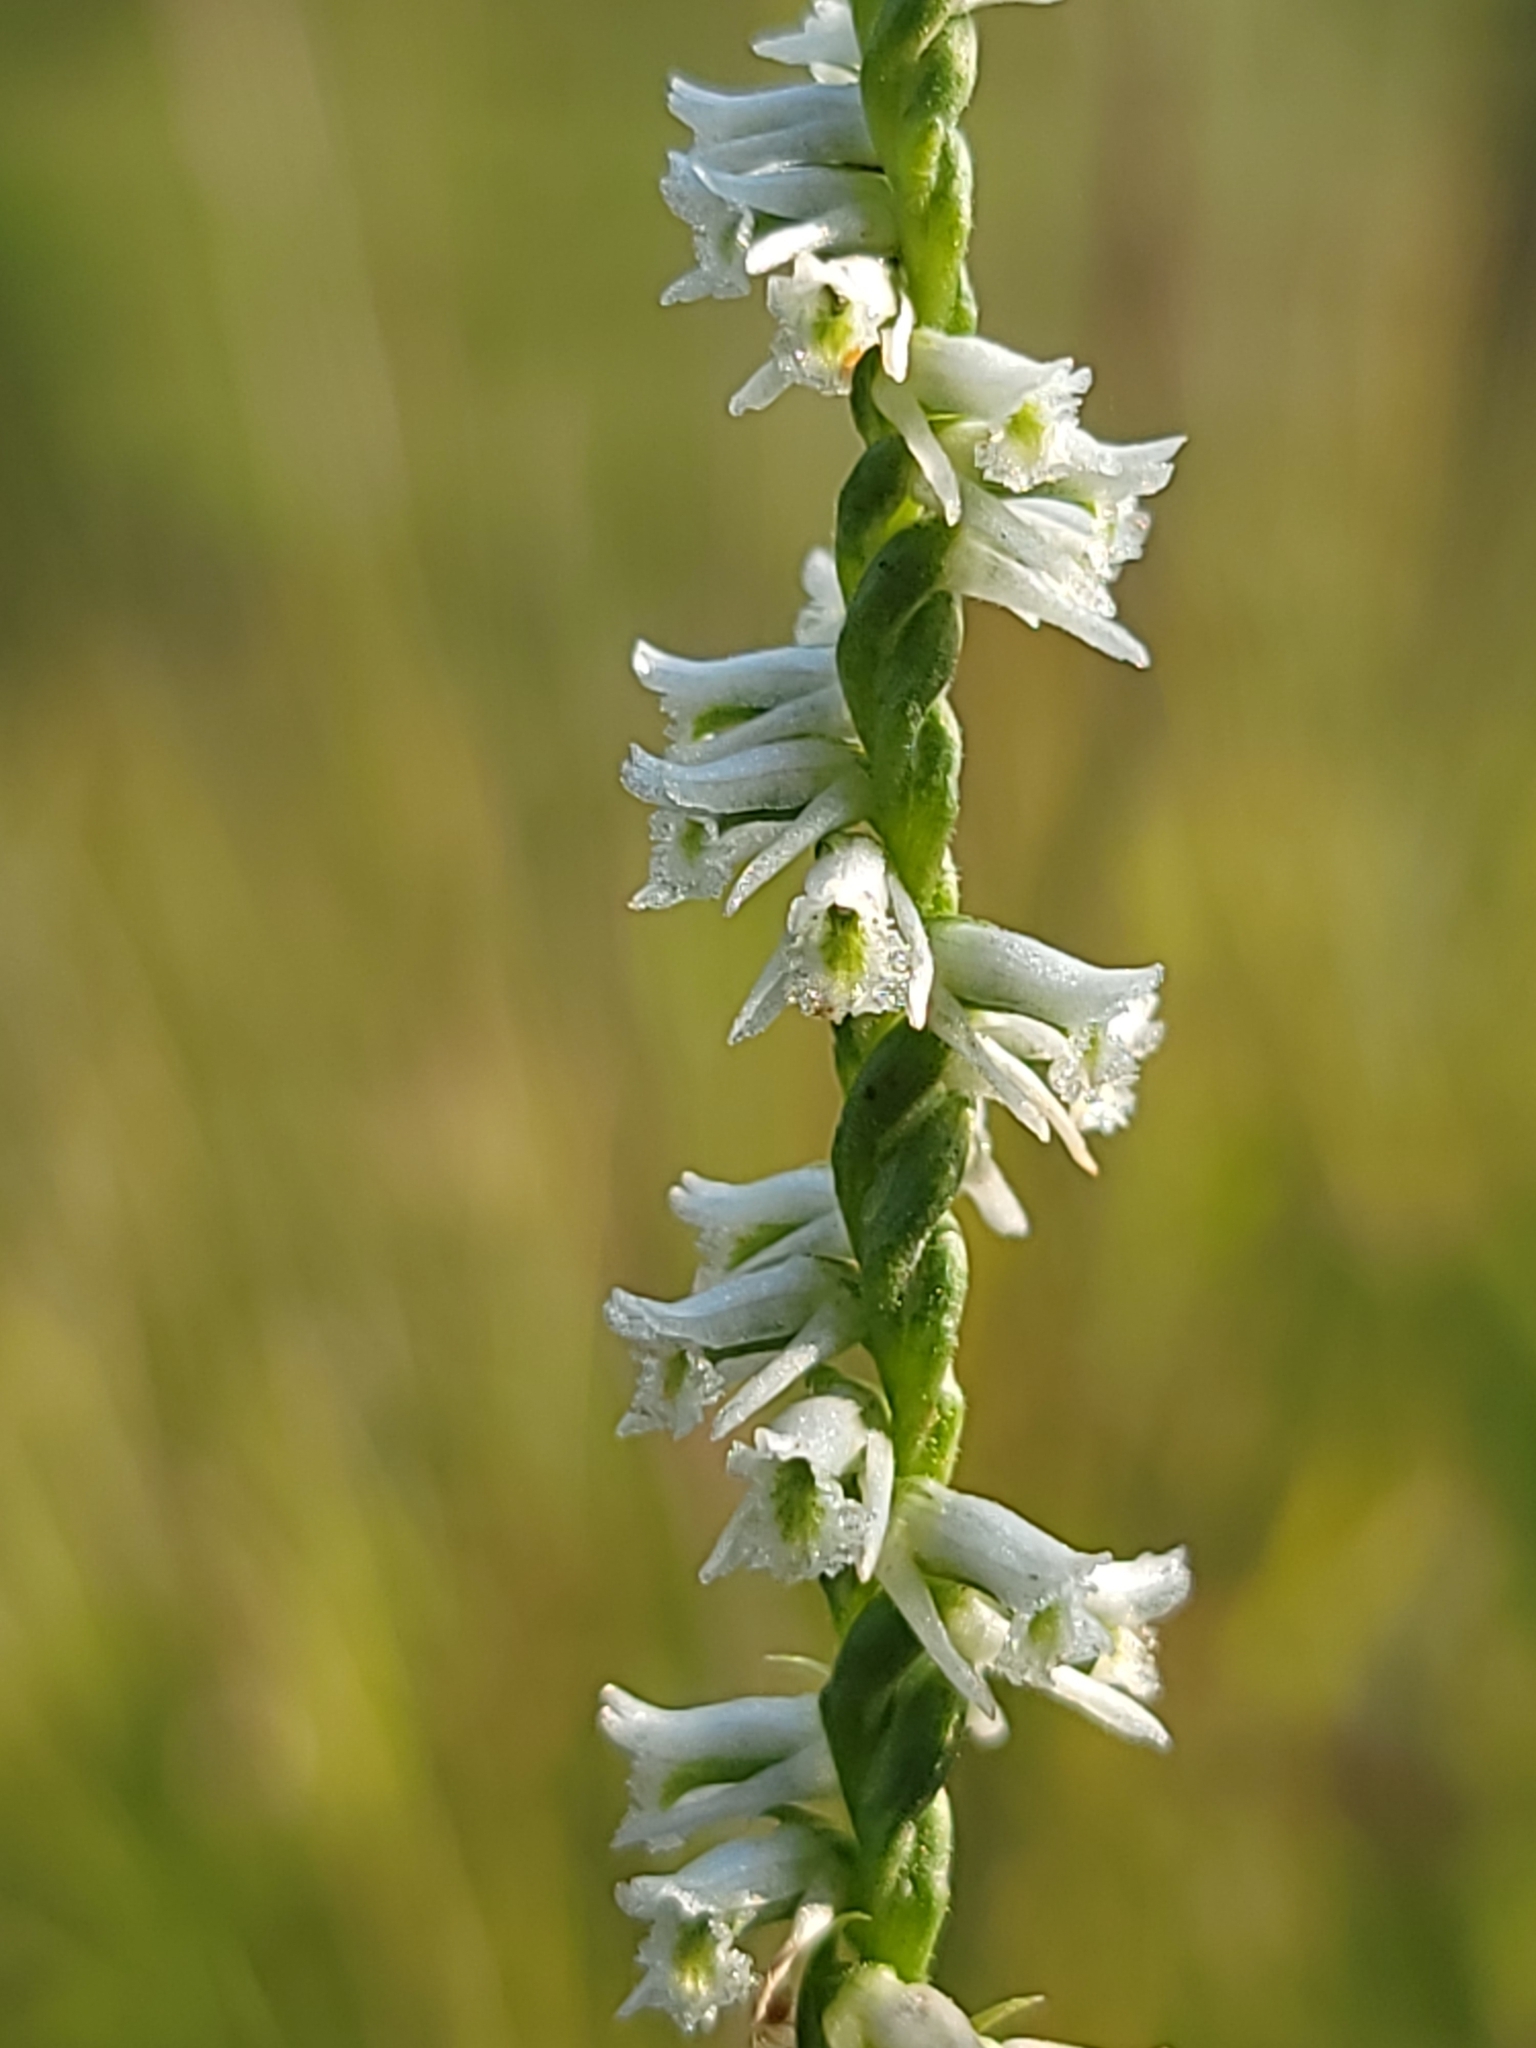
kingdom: Plantae
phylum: Tracheophyta
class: Liliopsida
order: Asparagales
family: Orchidaceae
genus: Spiranthes
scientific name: Spiranthes lacera
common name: Northern slender ladies'-tresses
